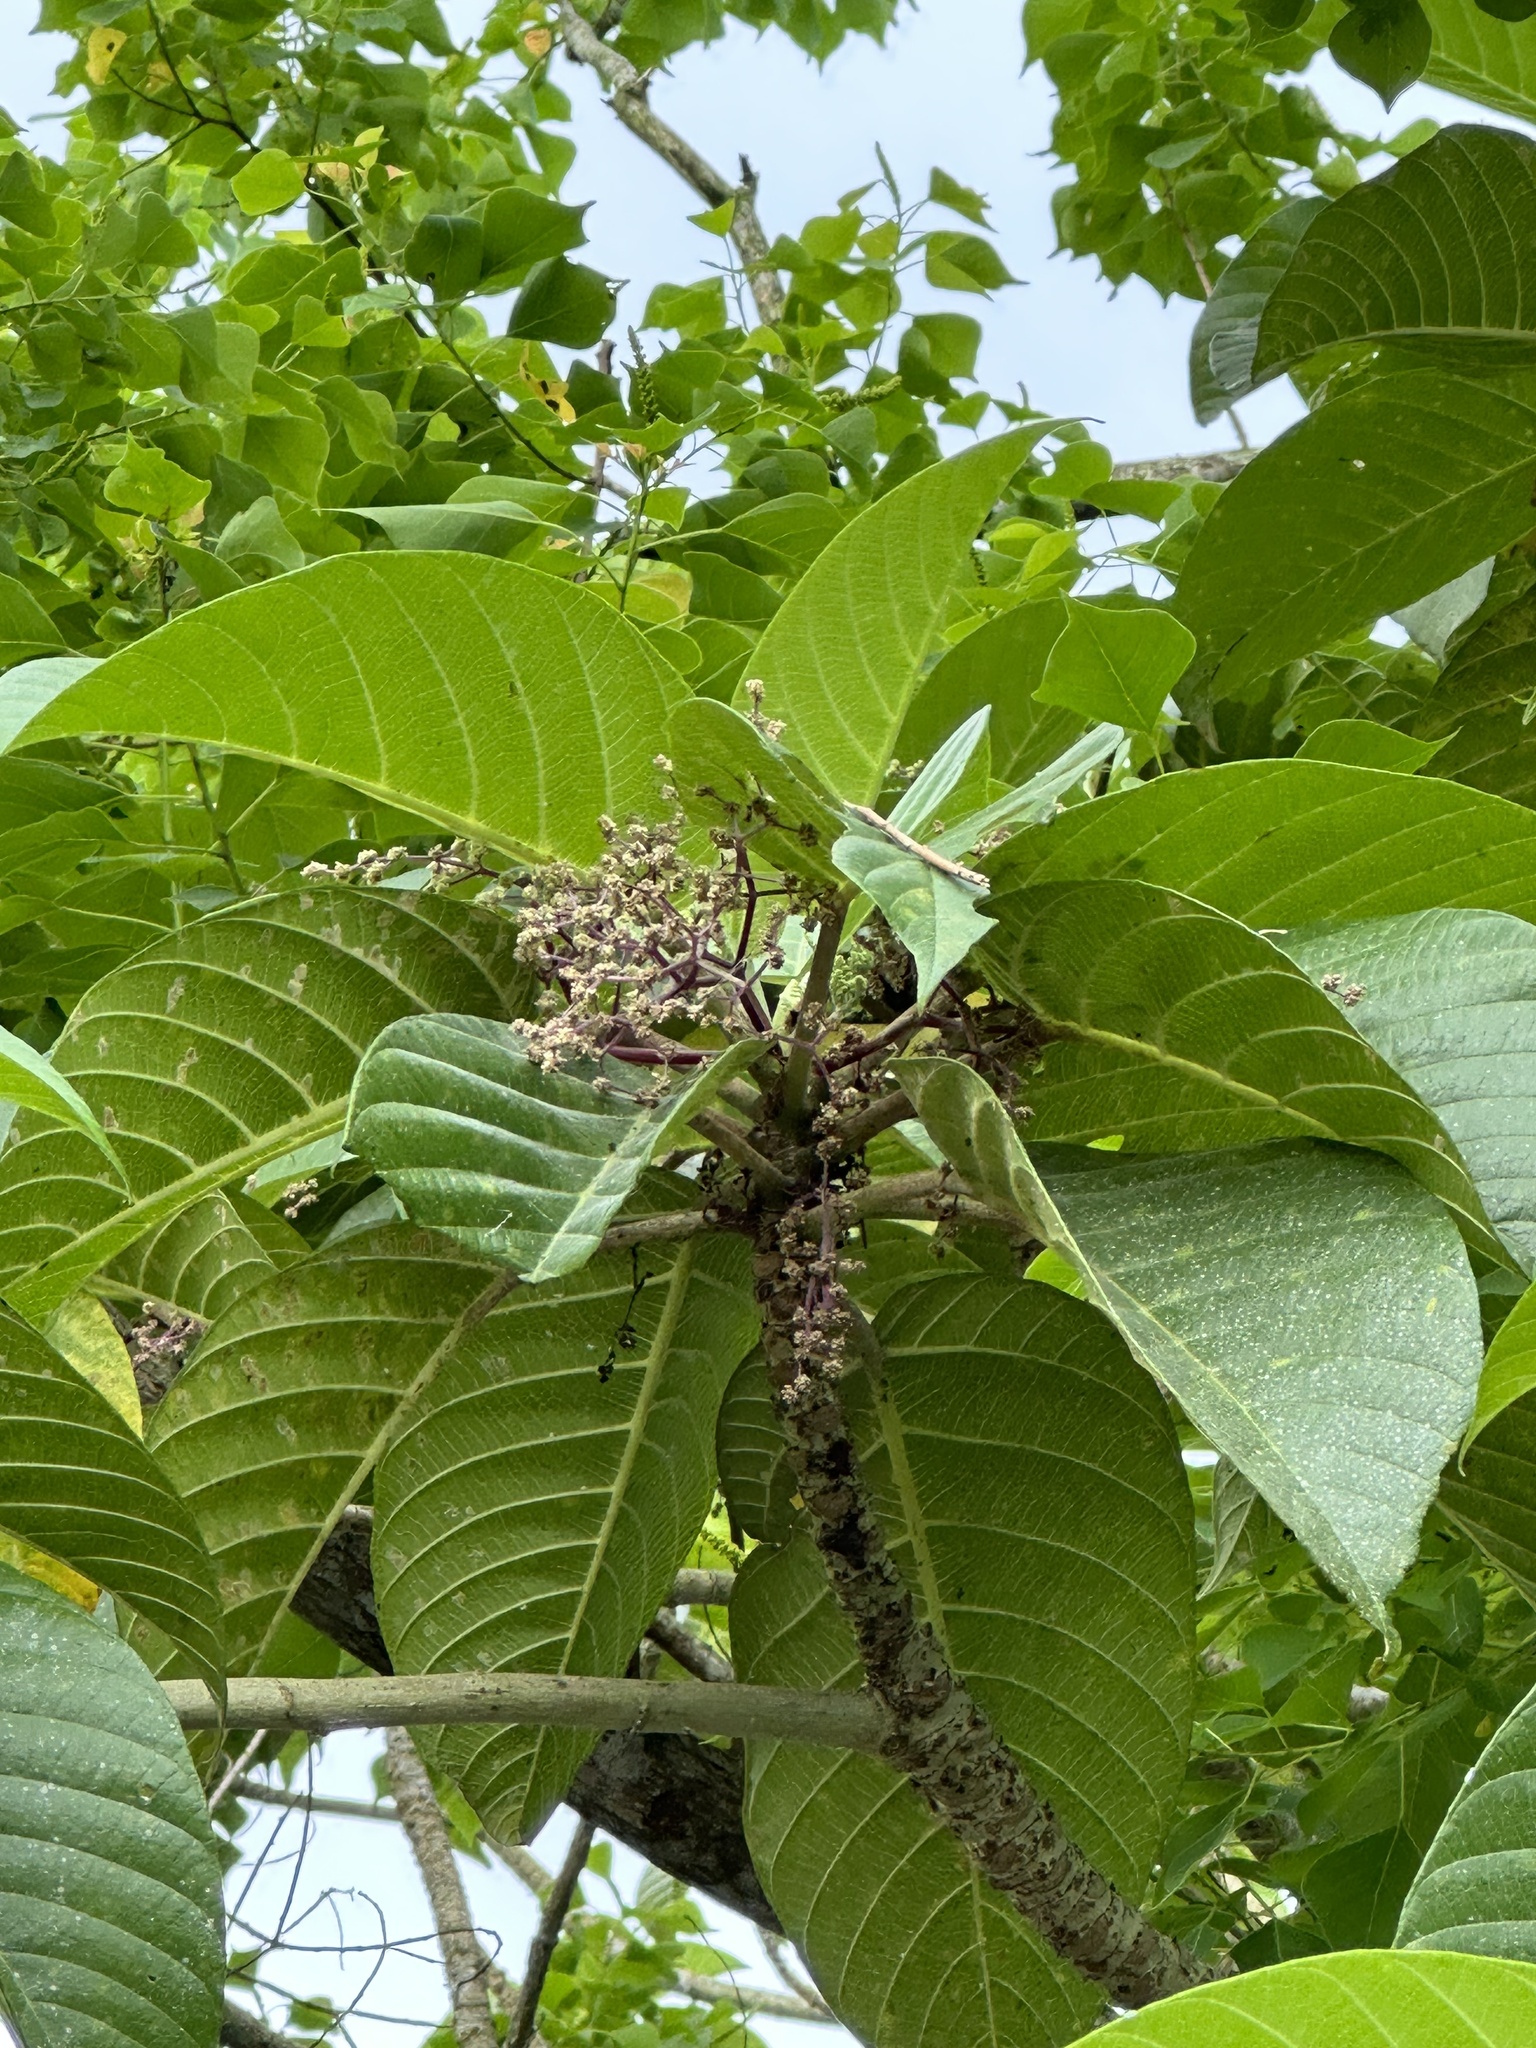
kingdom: Plantae
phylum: Tracheophyta
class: Magnoliopsida
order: Rosales
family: Urticaceae
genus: Dendrocnide
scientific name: Dendrocnide meyeniana
